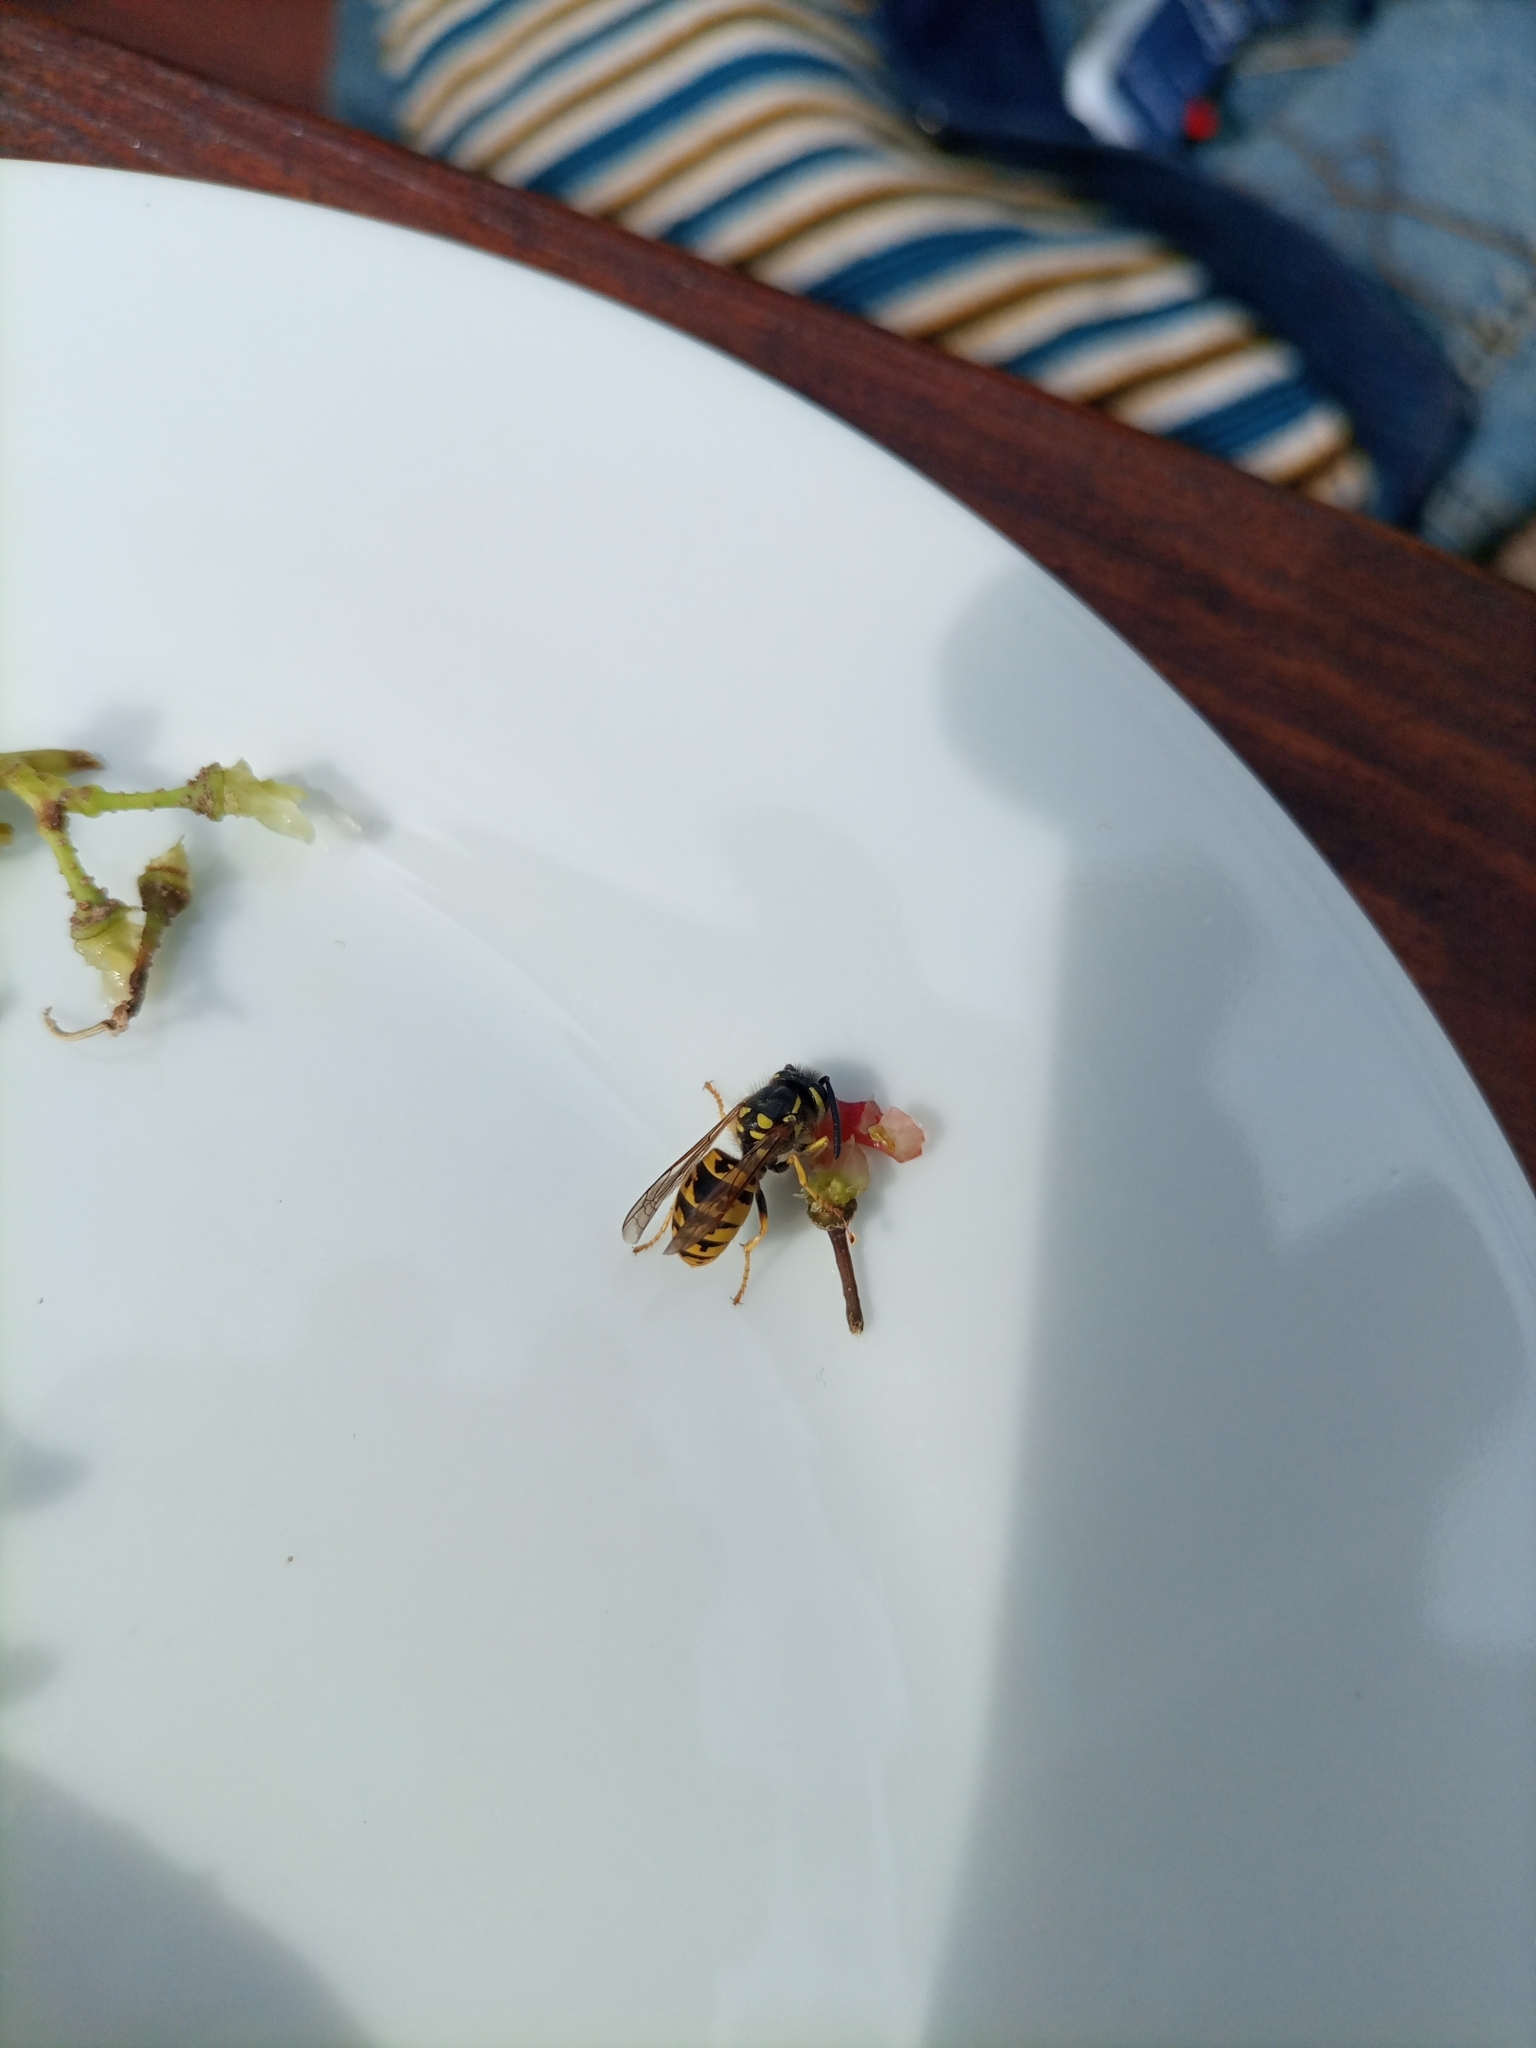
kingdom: Animalia
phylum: Arthropoda
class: Insecta
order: Hymenoptera
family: Vespidae
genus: Vespula
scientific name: Vespula germanica
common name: German wasp
